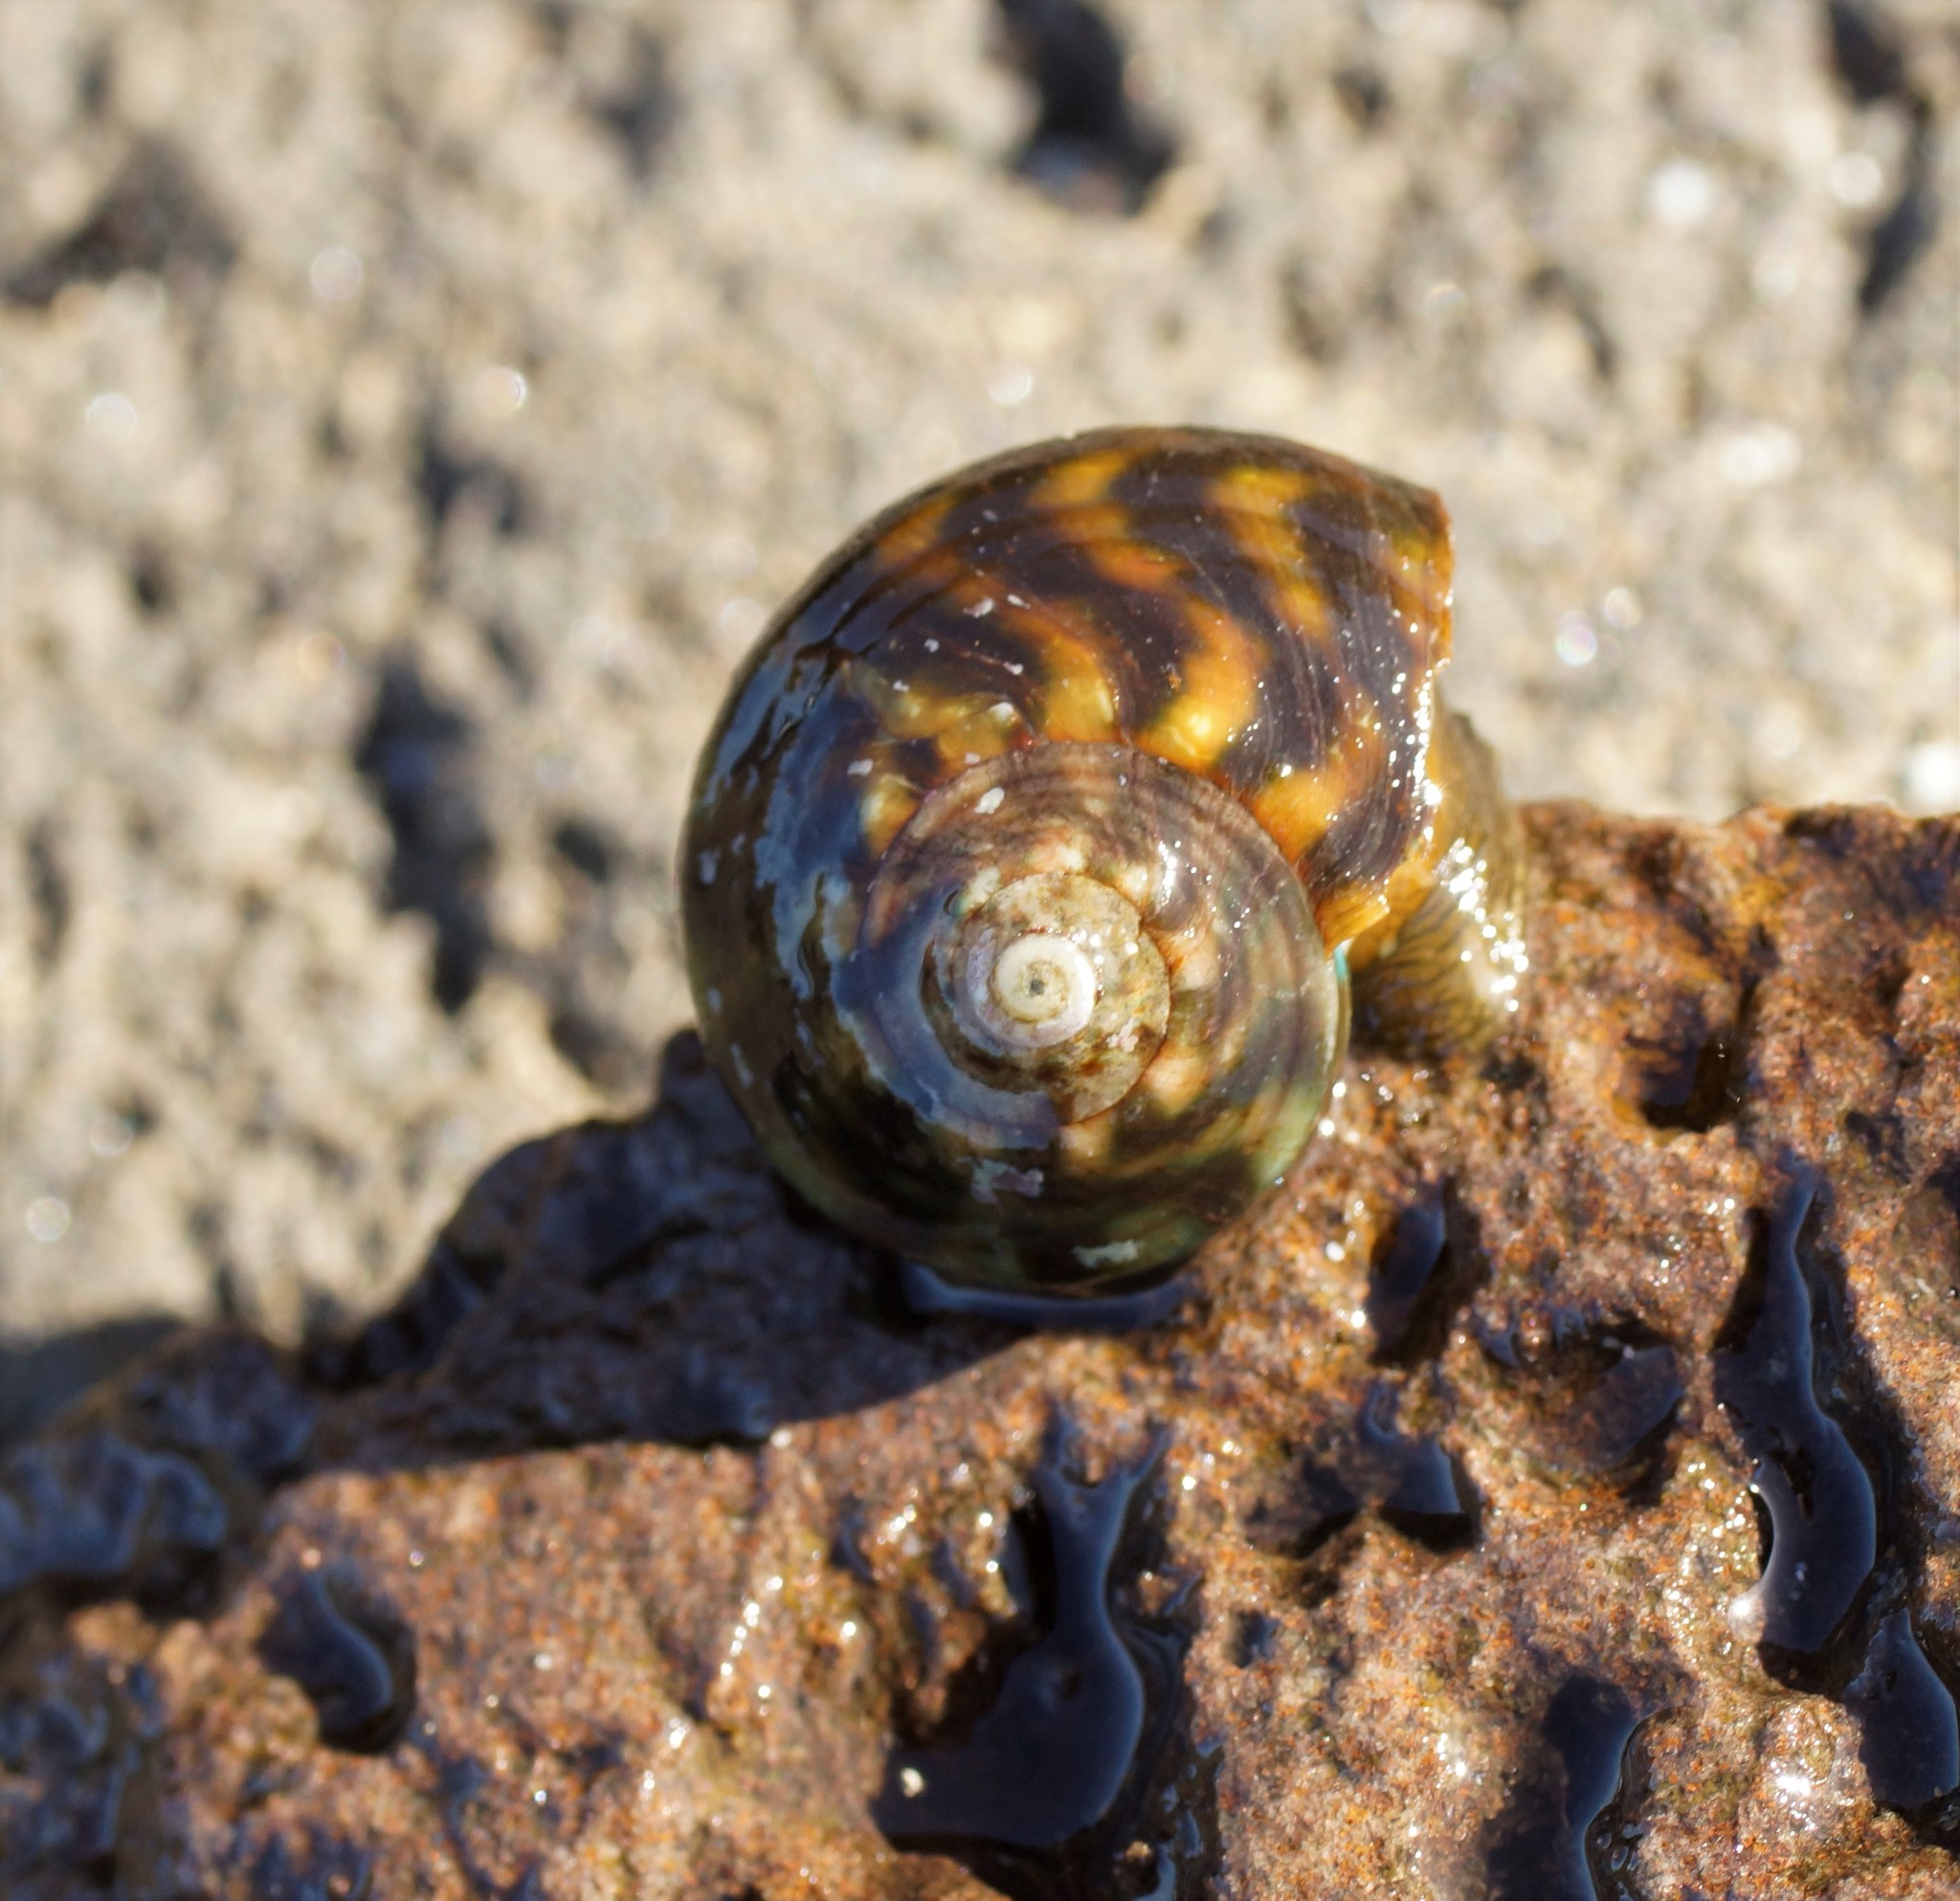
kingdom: Animalia
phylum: Mollusca
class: Gastropoda
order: Trochida
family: Turbinidae
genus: Lunella
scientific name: Lunella undulata
